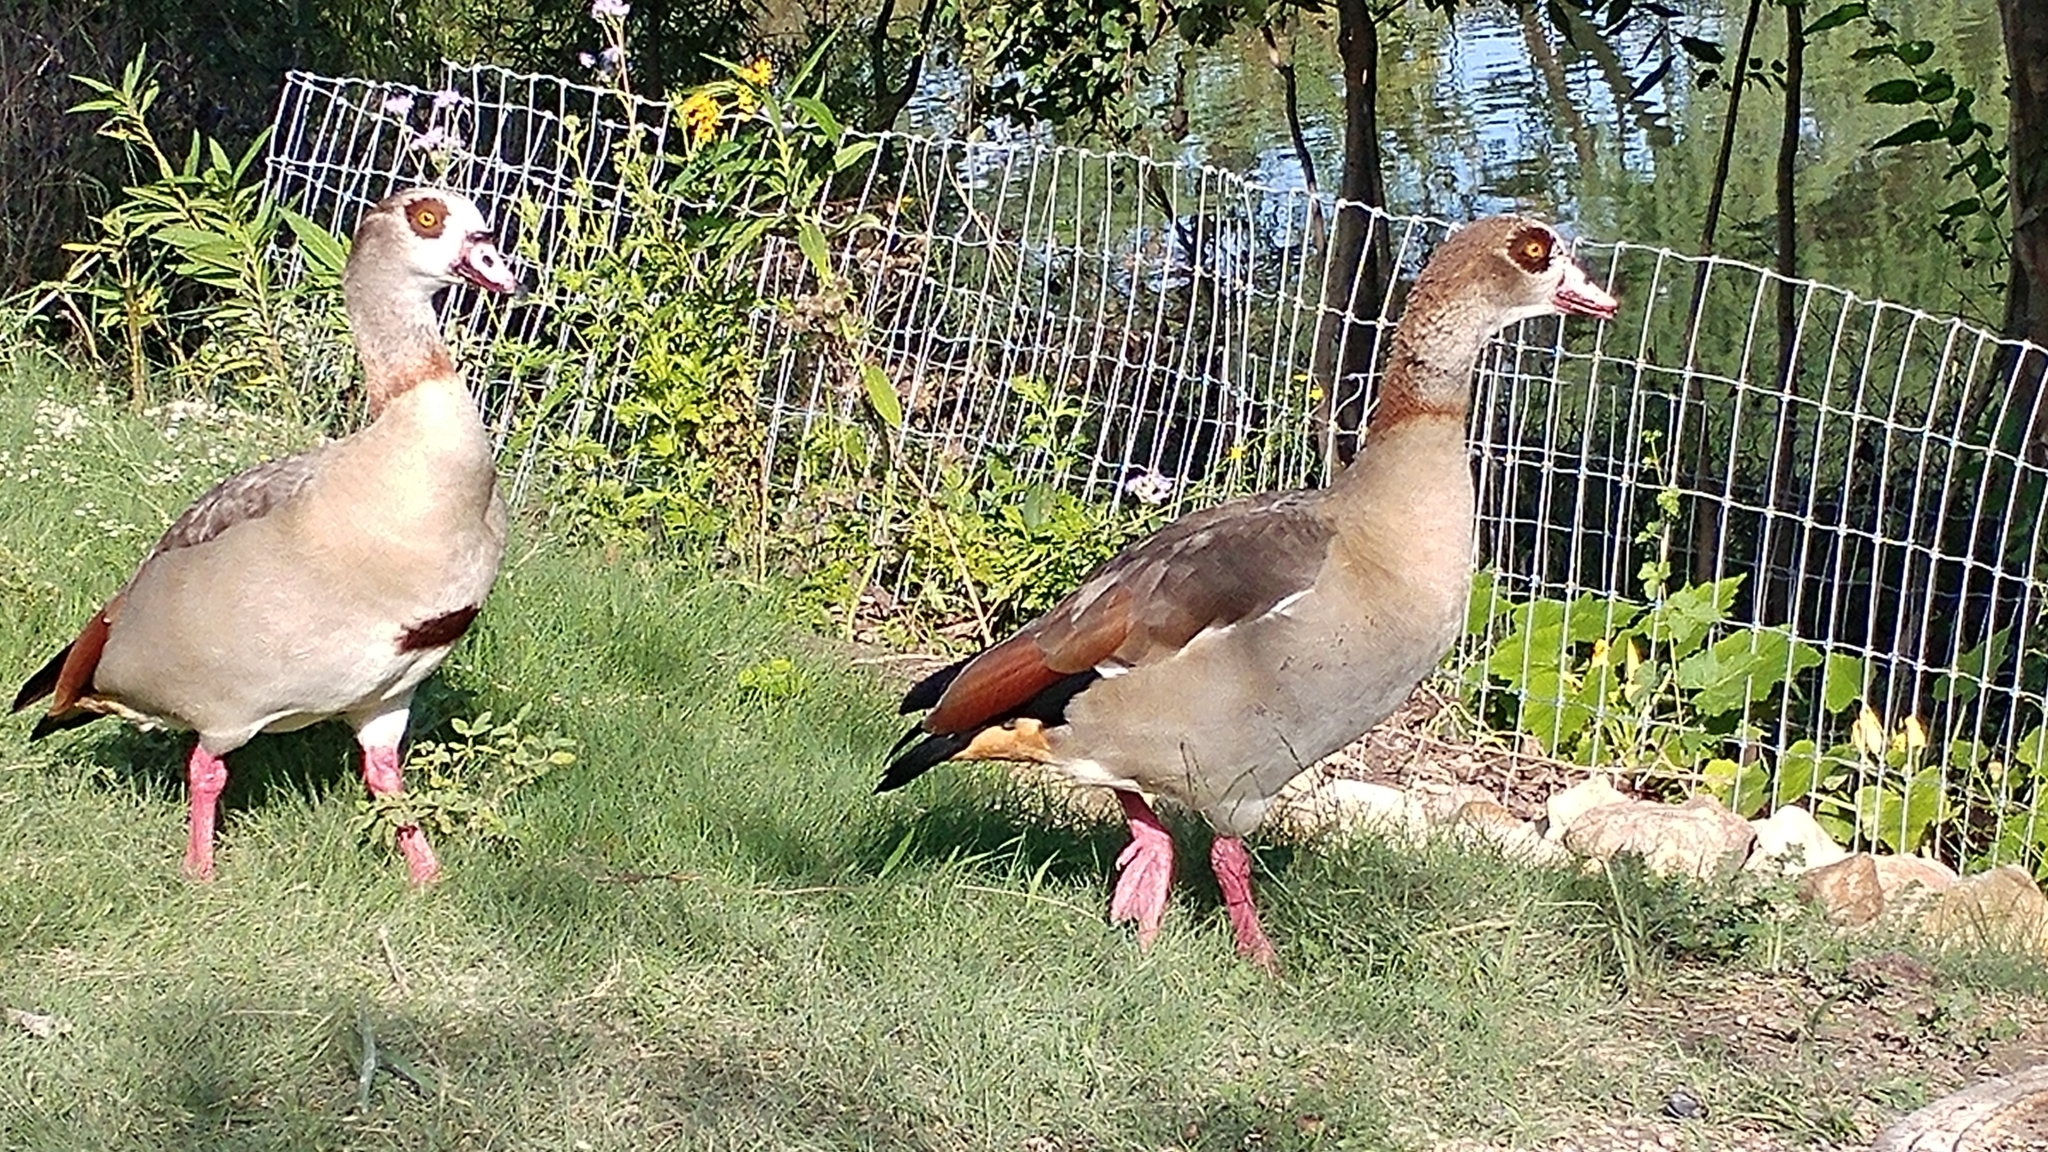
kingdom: Animalia
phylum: Chordata
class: Aves
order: Anseriformes
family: Anatidae
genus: Alopochen
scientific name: Alopochen aegyptiaca
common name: Egyptian goose
